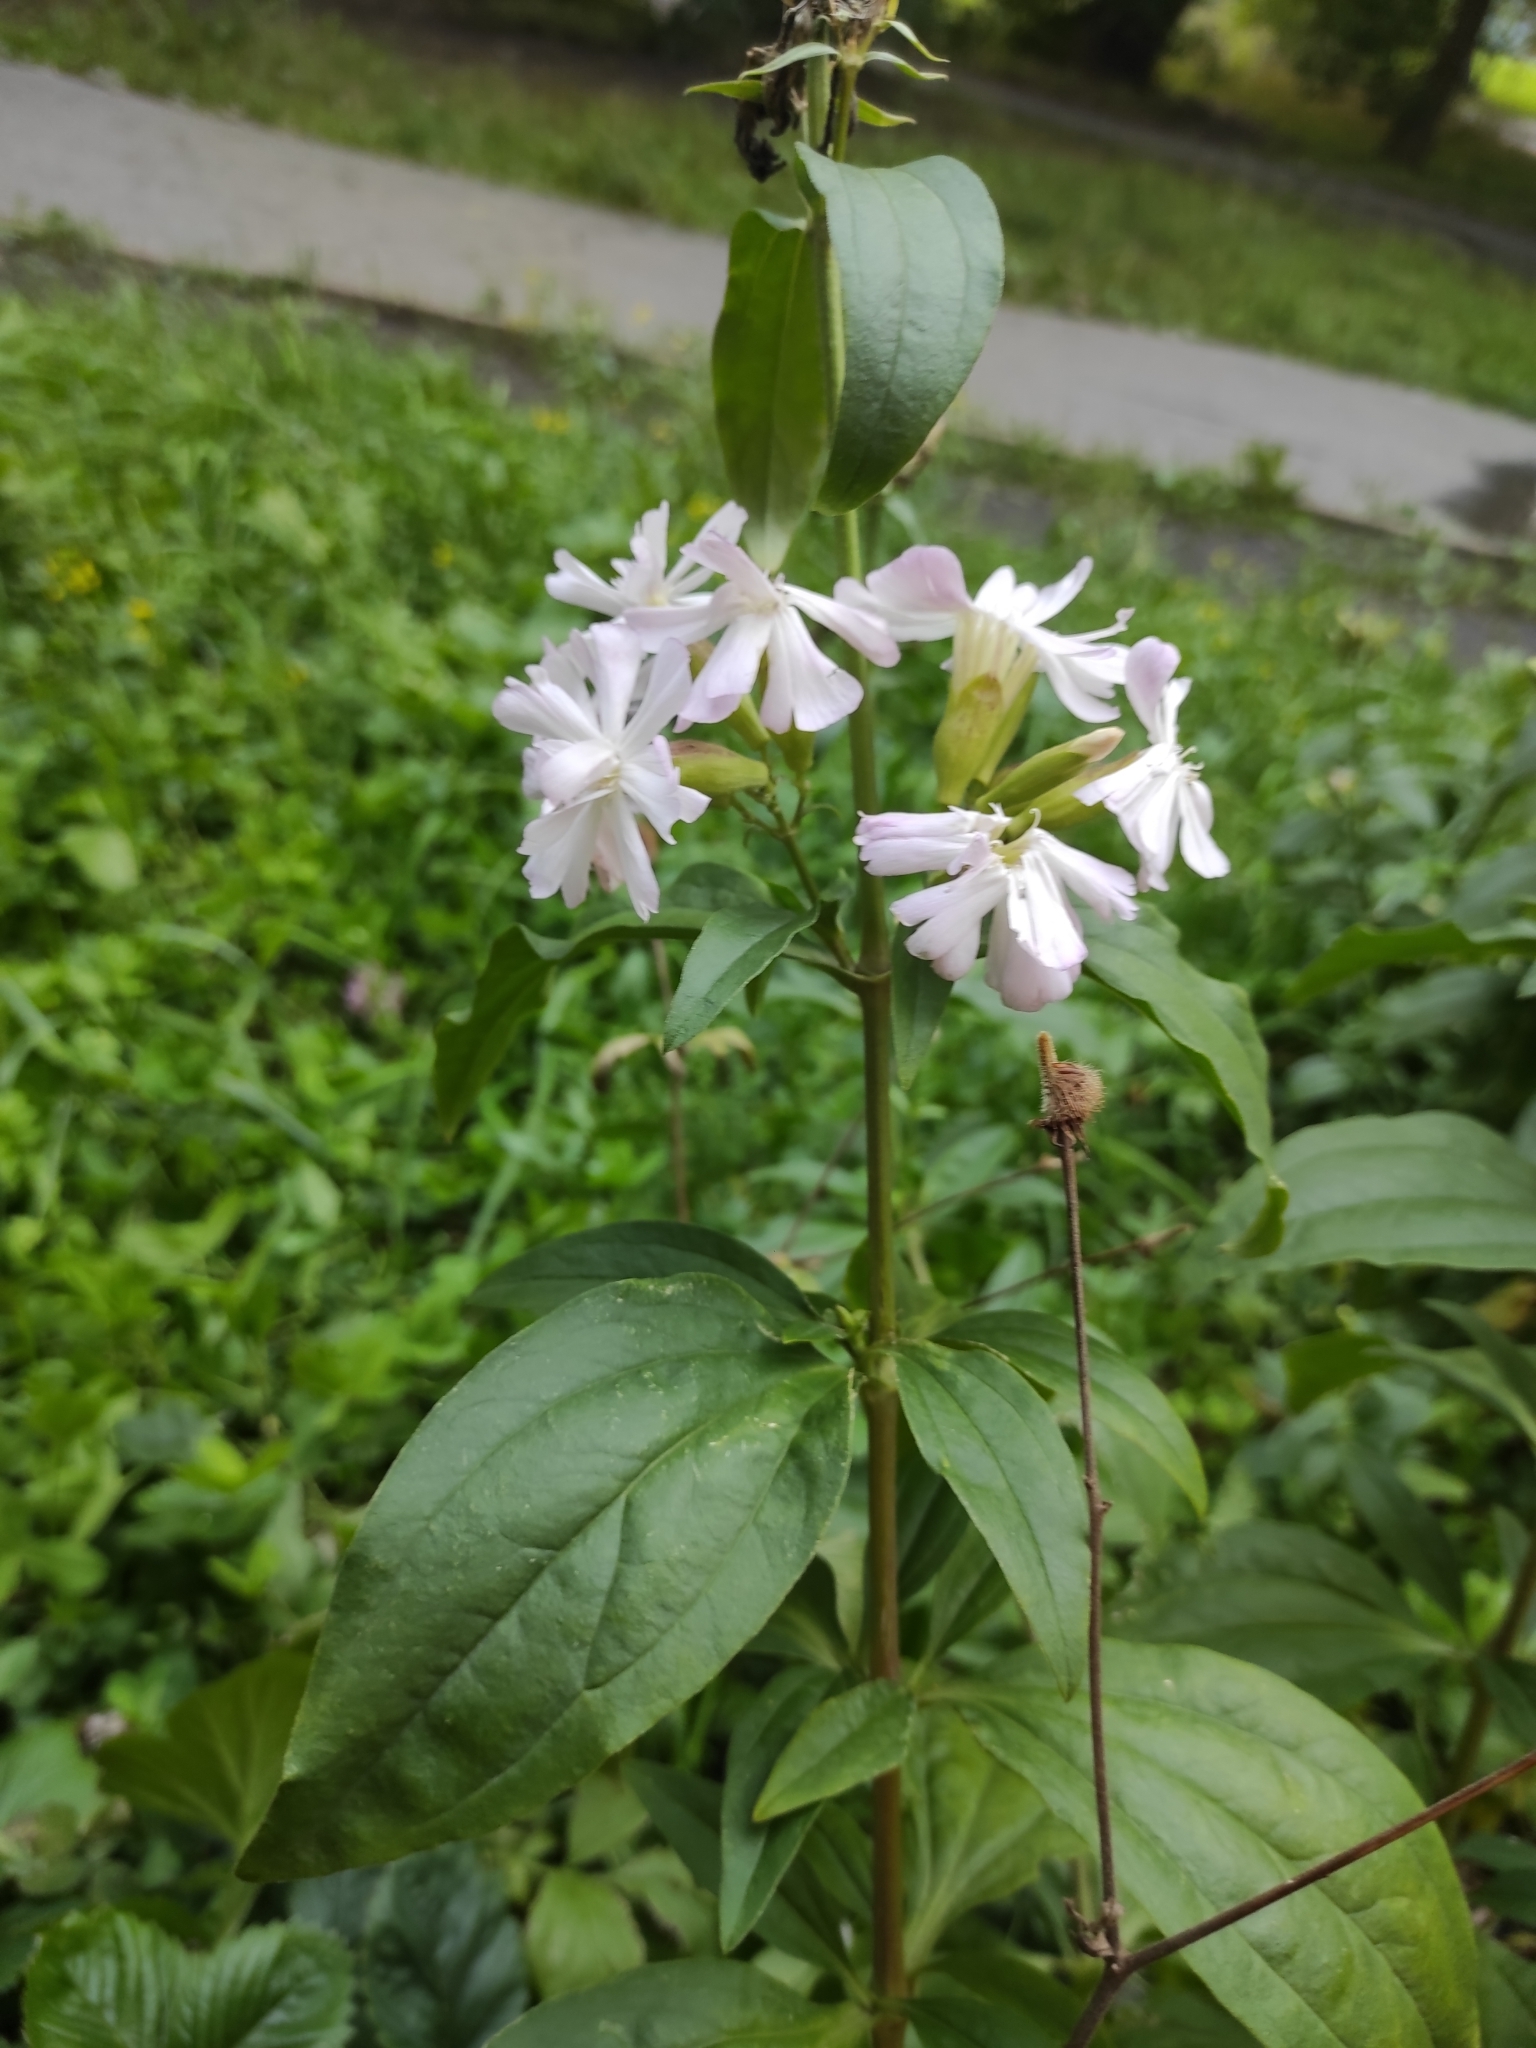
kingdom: Plantae
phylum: Tracheophyta
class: Magnoliopsida
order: Caryophyllales
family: Caryophyllaceae
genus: Saponaria
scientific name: Saponaria officinalis
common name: Soapwort
